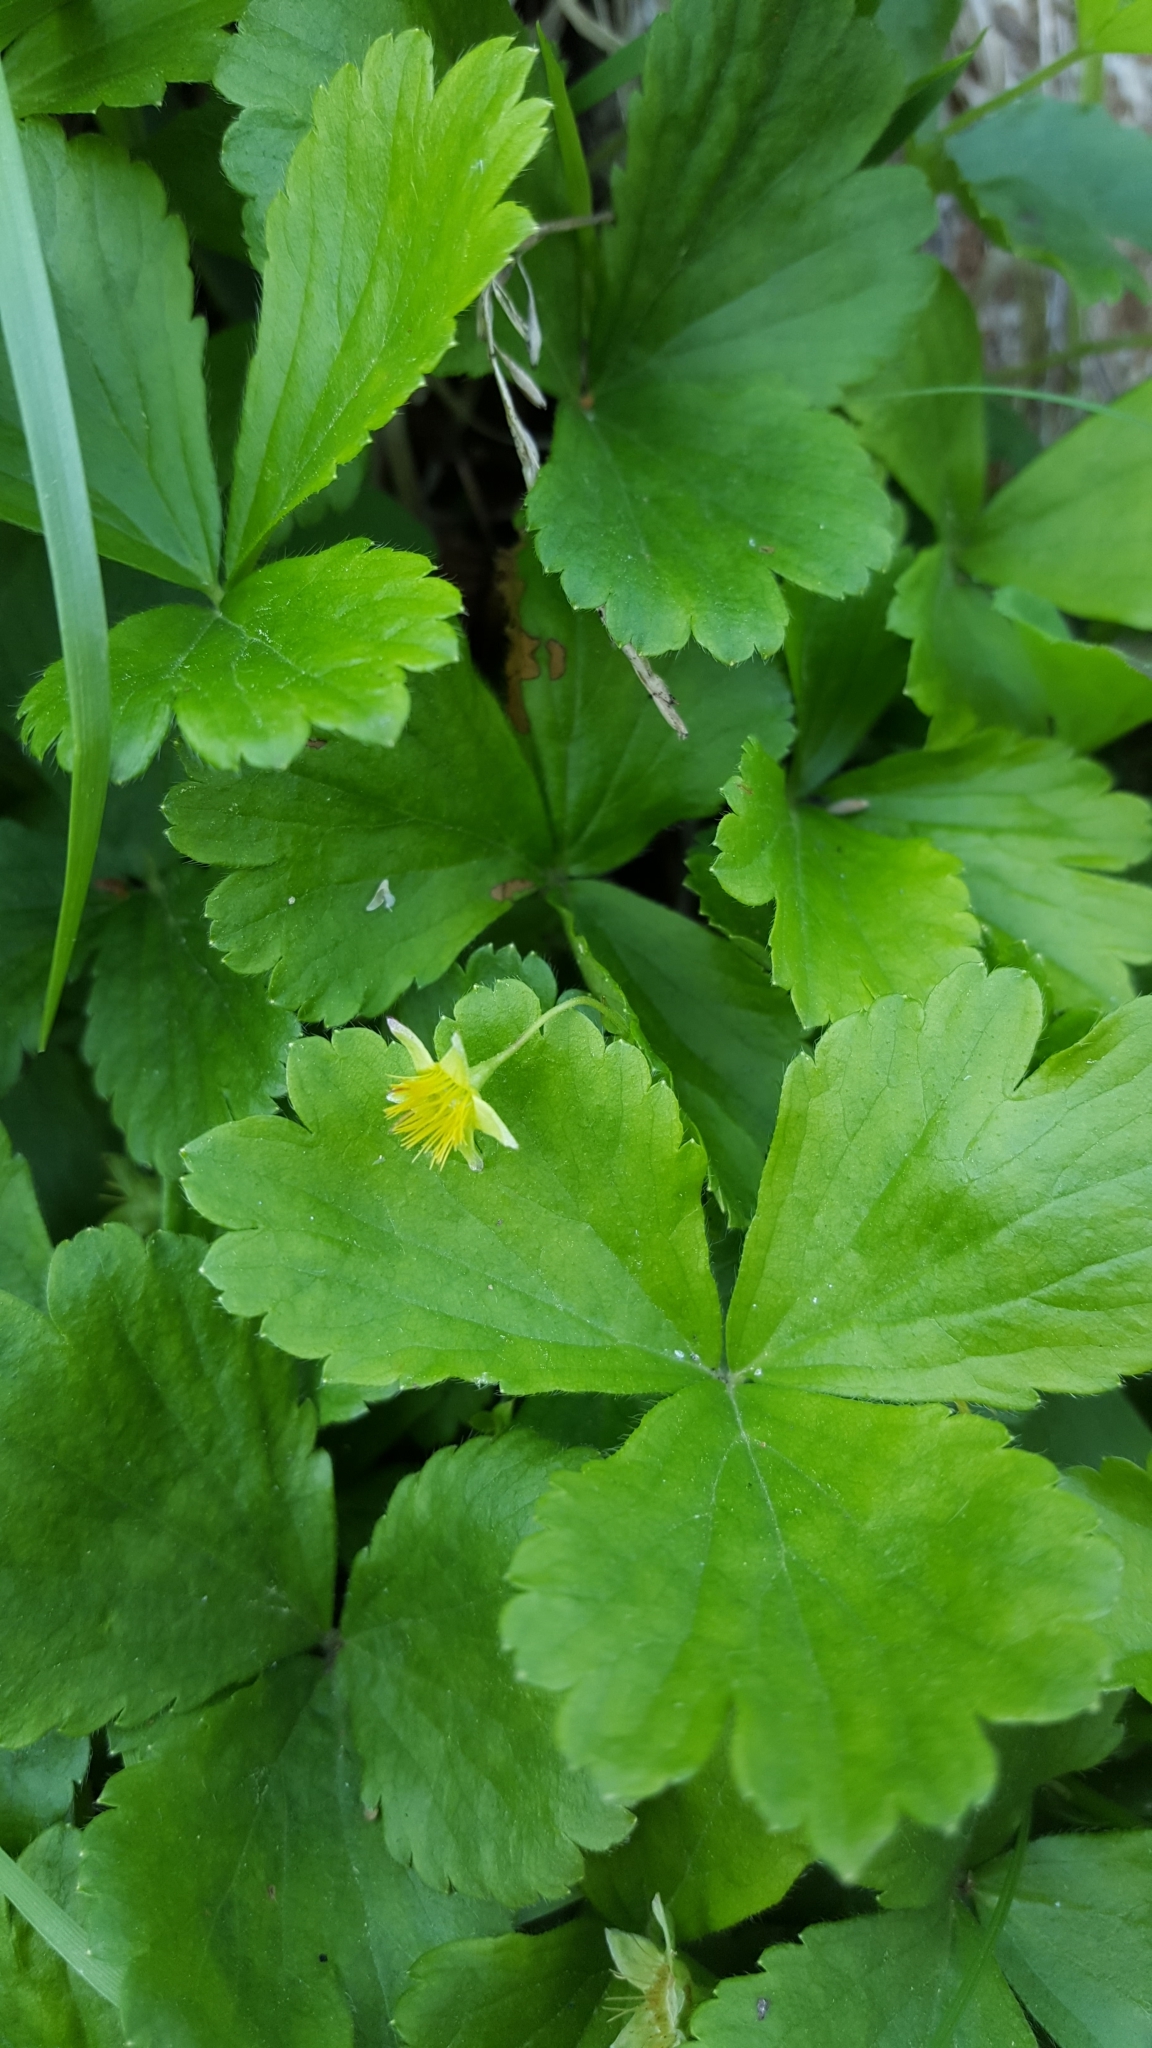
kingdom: Plantae
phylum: Tracheophyta
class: Magnoliopsida
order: Rosales
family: Rosaceae
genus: Geum
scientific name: Geum fragarioides
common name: Appalachian barren strawberry
